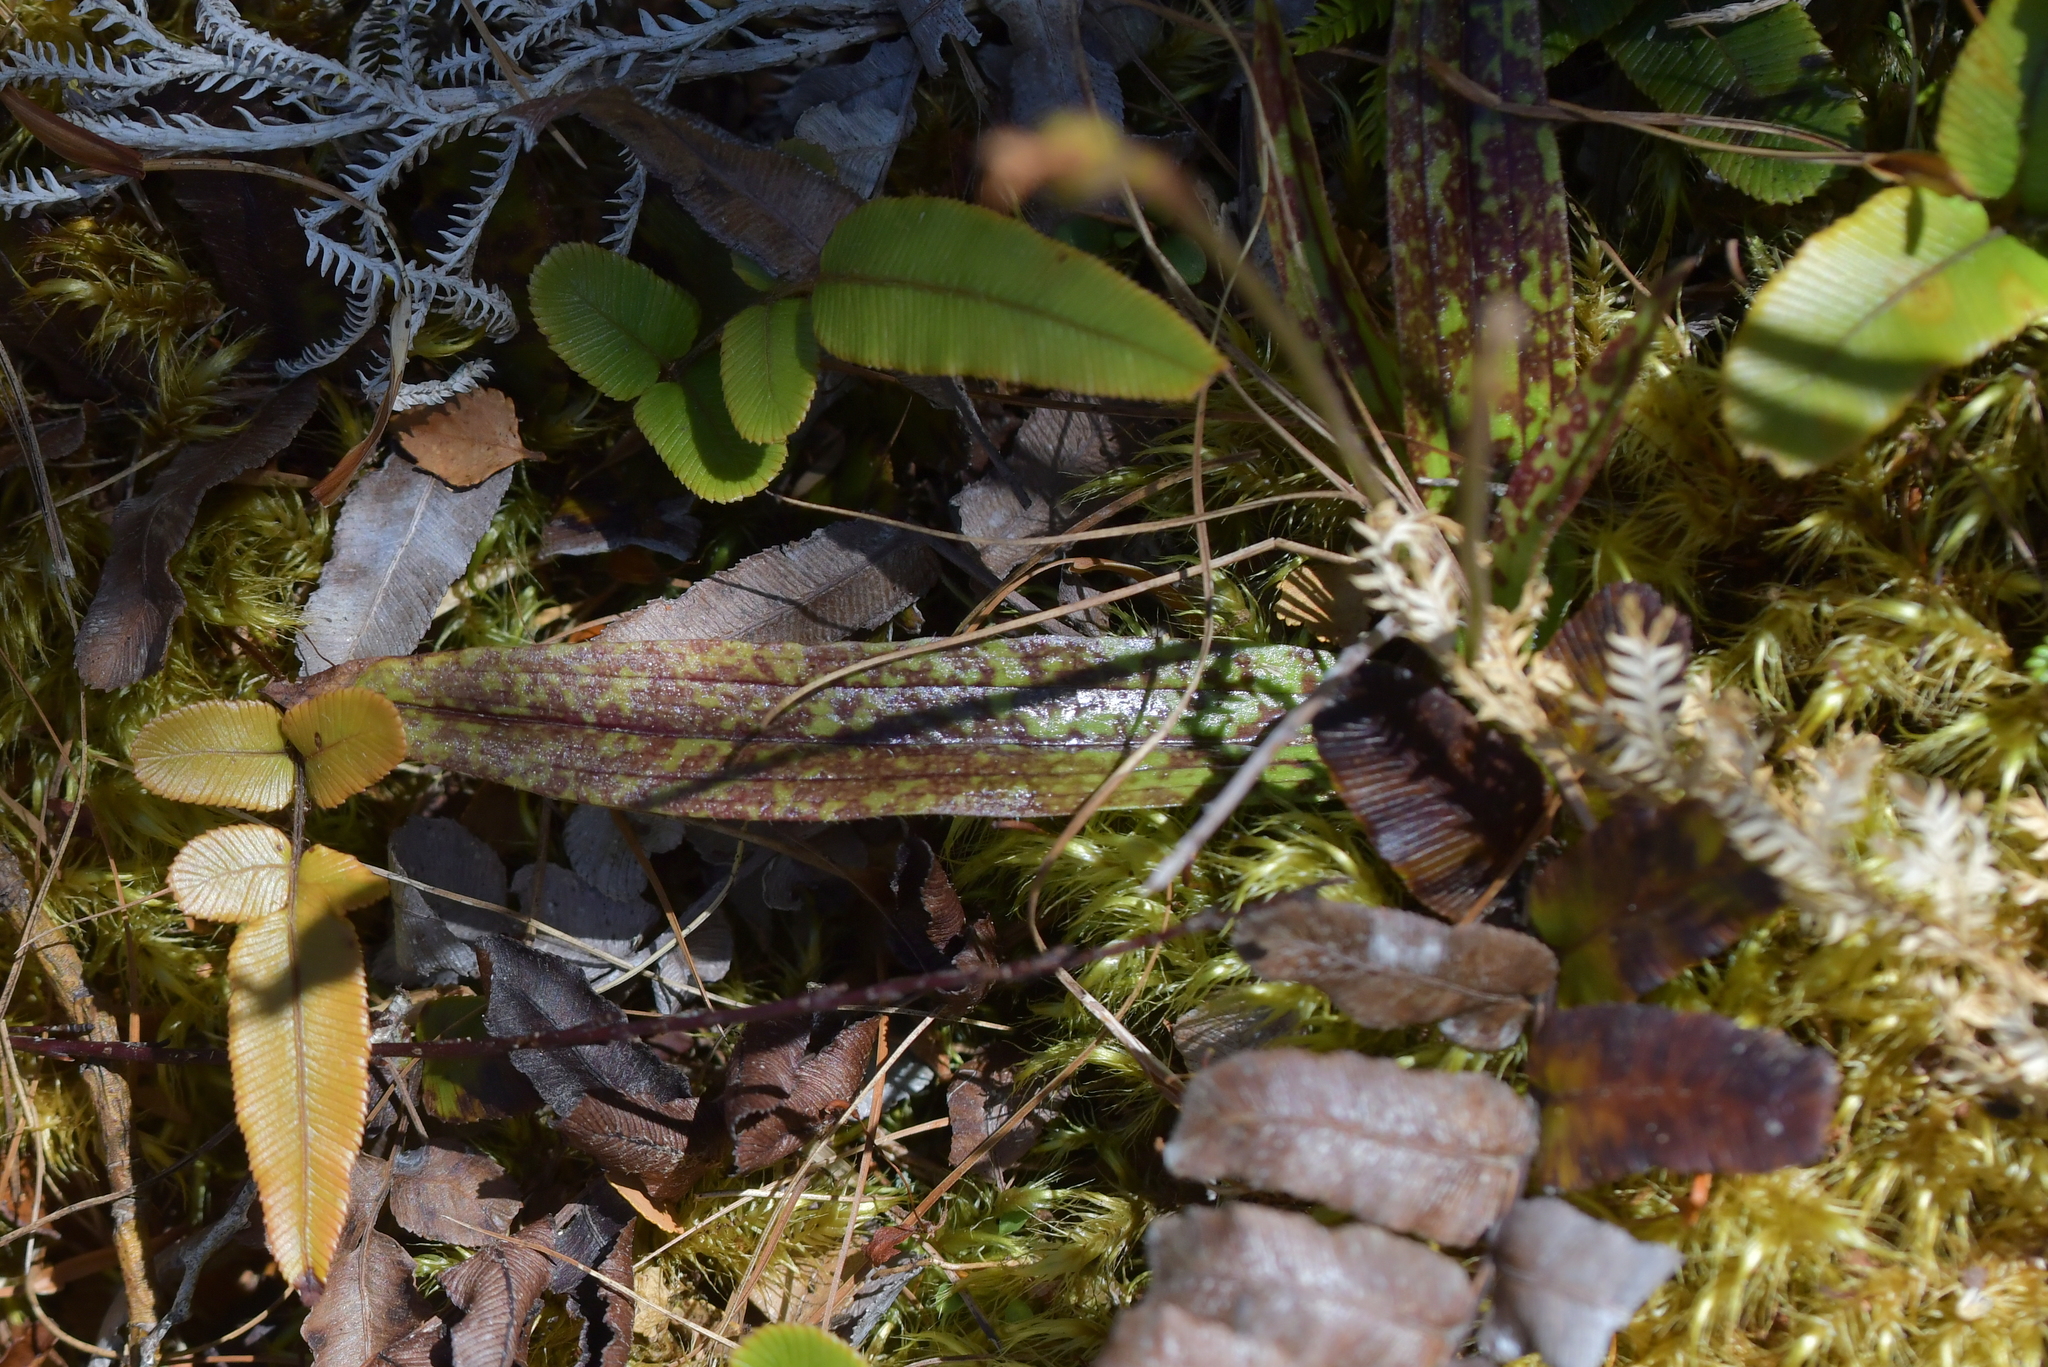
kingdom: Plantae
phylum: Tracheophyta
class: Liliopsida
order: Asparagales
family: Orchidaceae
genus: Aporostylis
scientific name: Aporostylis bifolia
